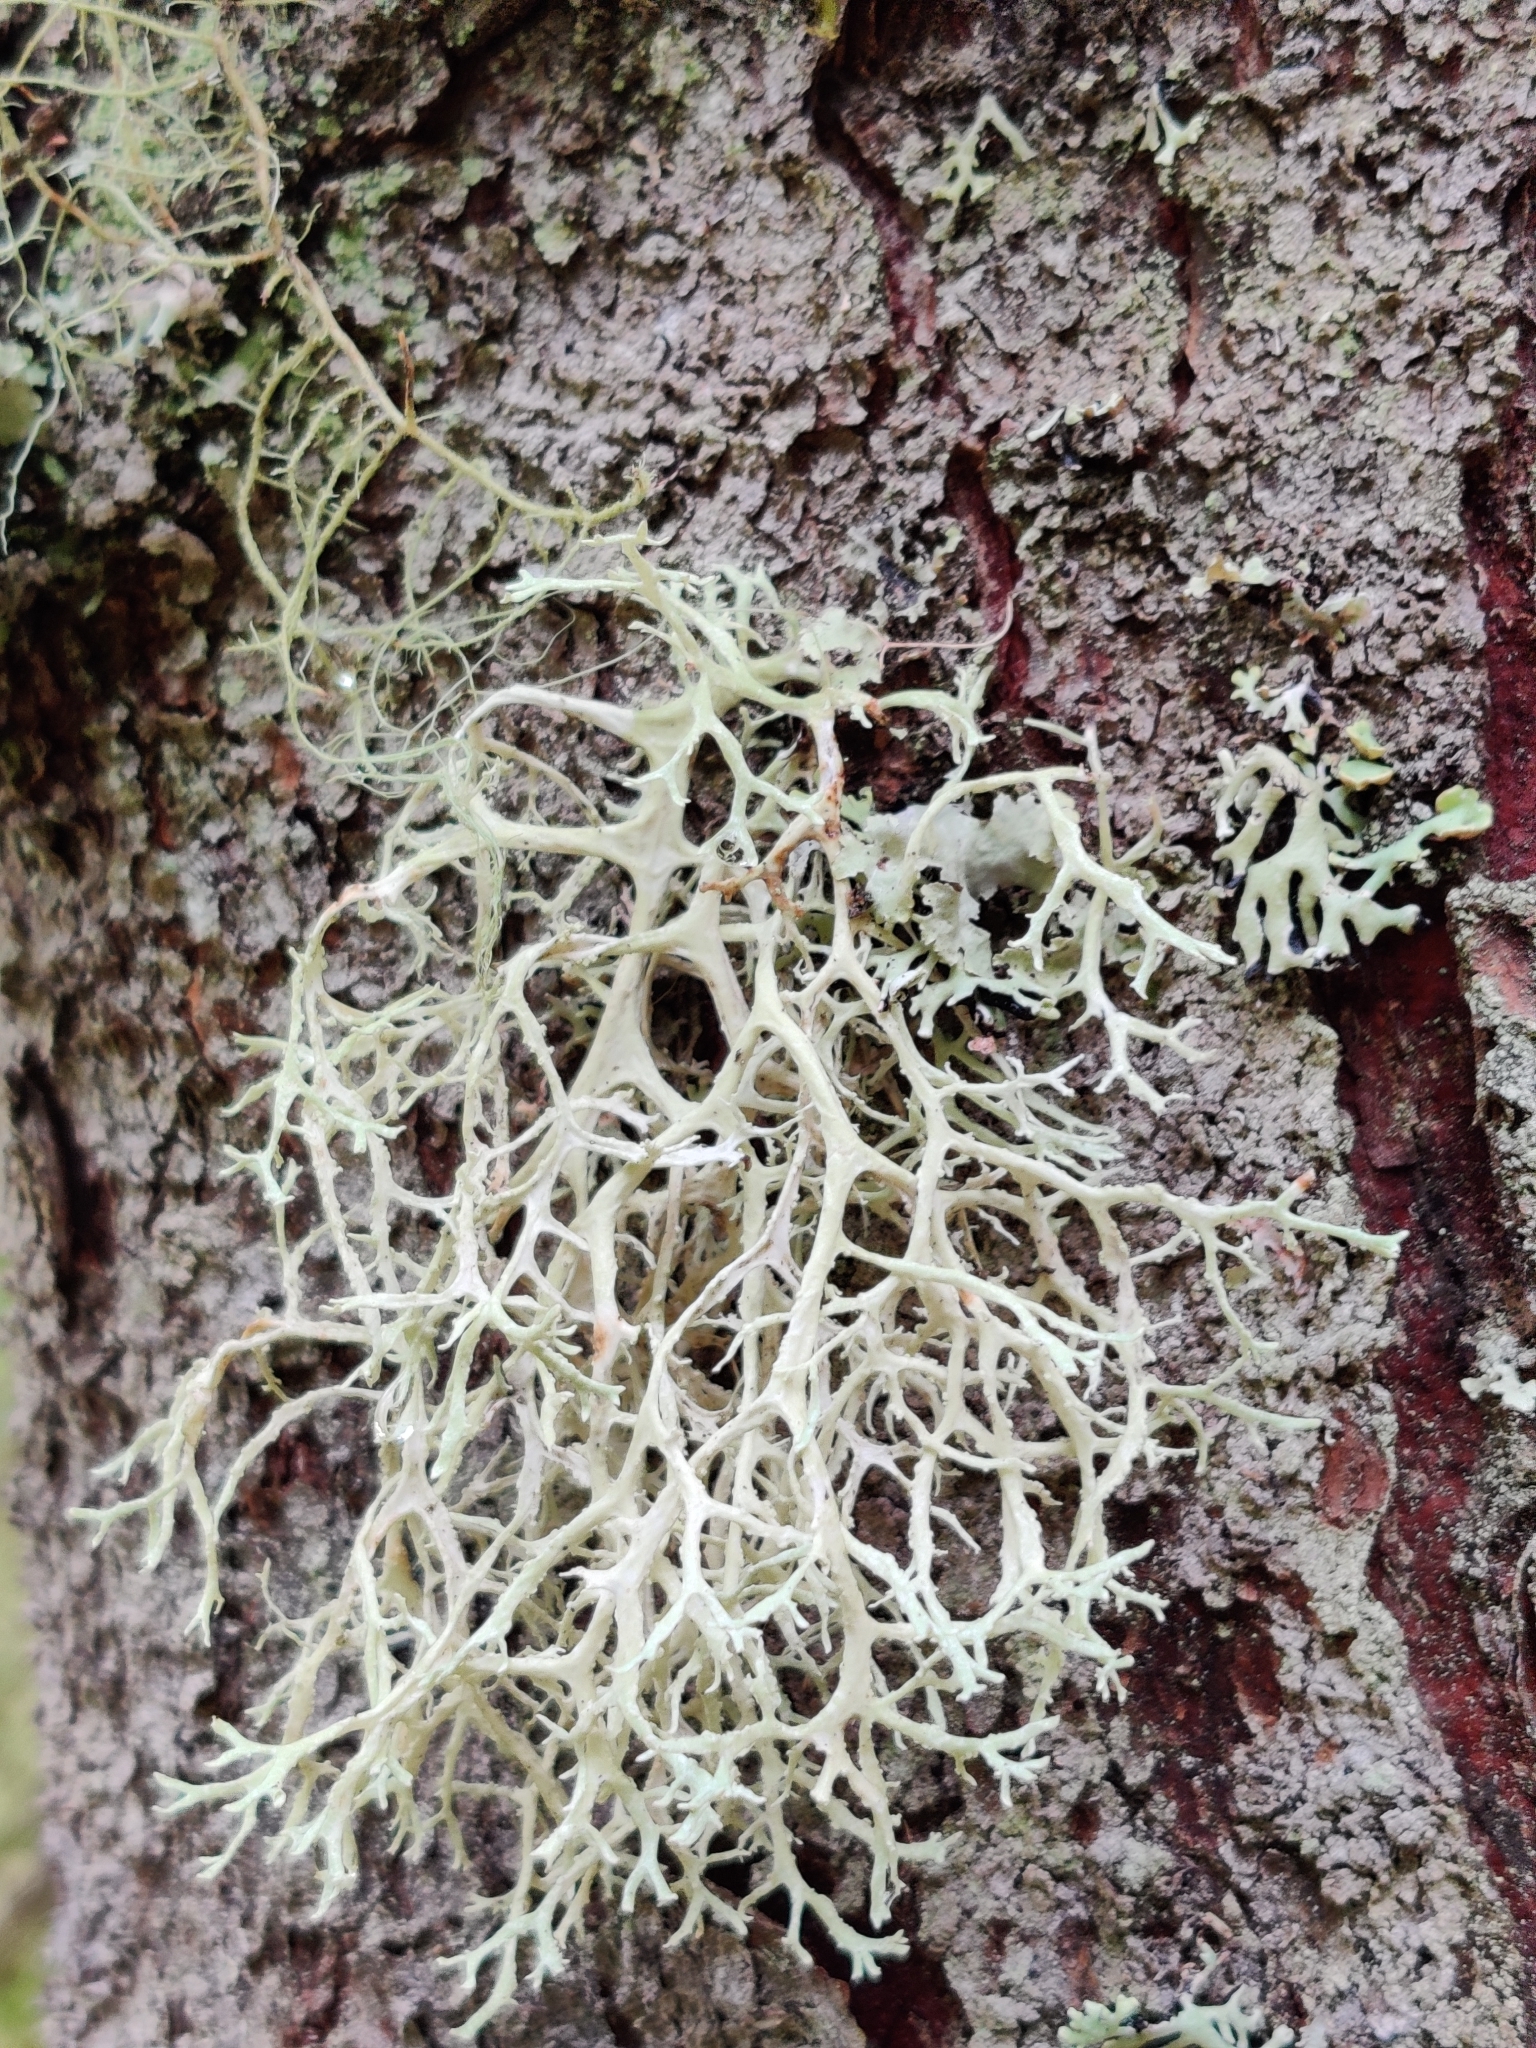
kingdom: Fungi
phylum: Ascomycota
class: Lecanoromycetes
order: Lecanorales
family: Parmeliaceae
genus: Evernia
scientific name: Evernia prunastri
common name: Oak moss
